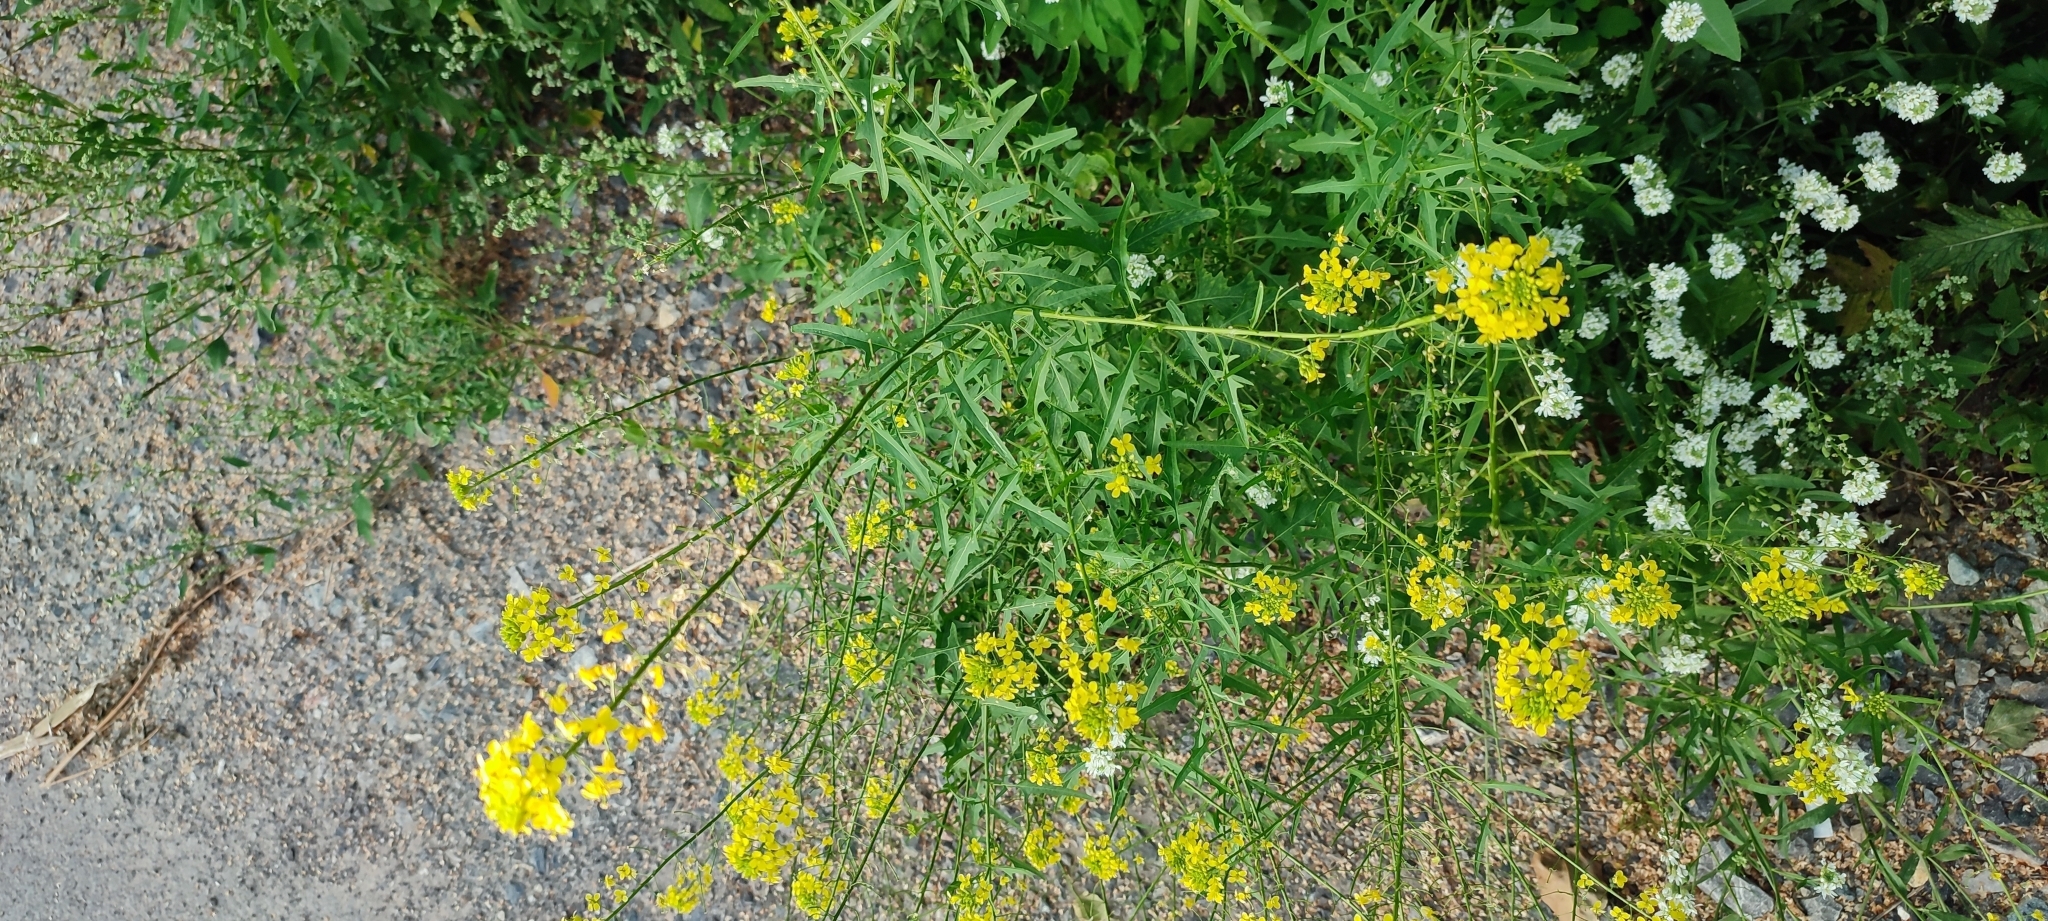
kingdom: Plantae
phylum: Tracheophyta
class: Magnoliopsida
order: Brassicales
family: Brassicaceae
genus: Sisymbrium
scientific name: Sisymbrium loeselii
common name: False london-rocket
